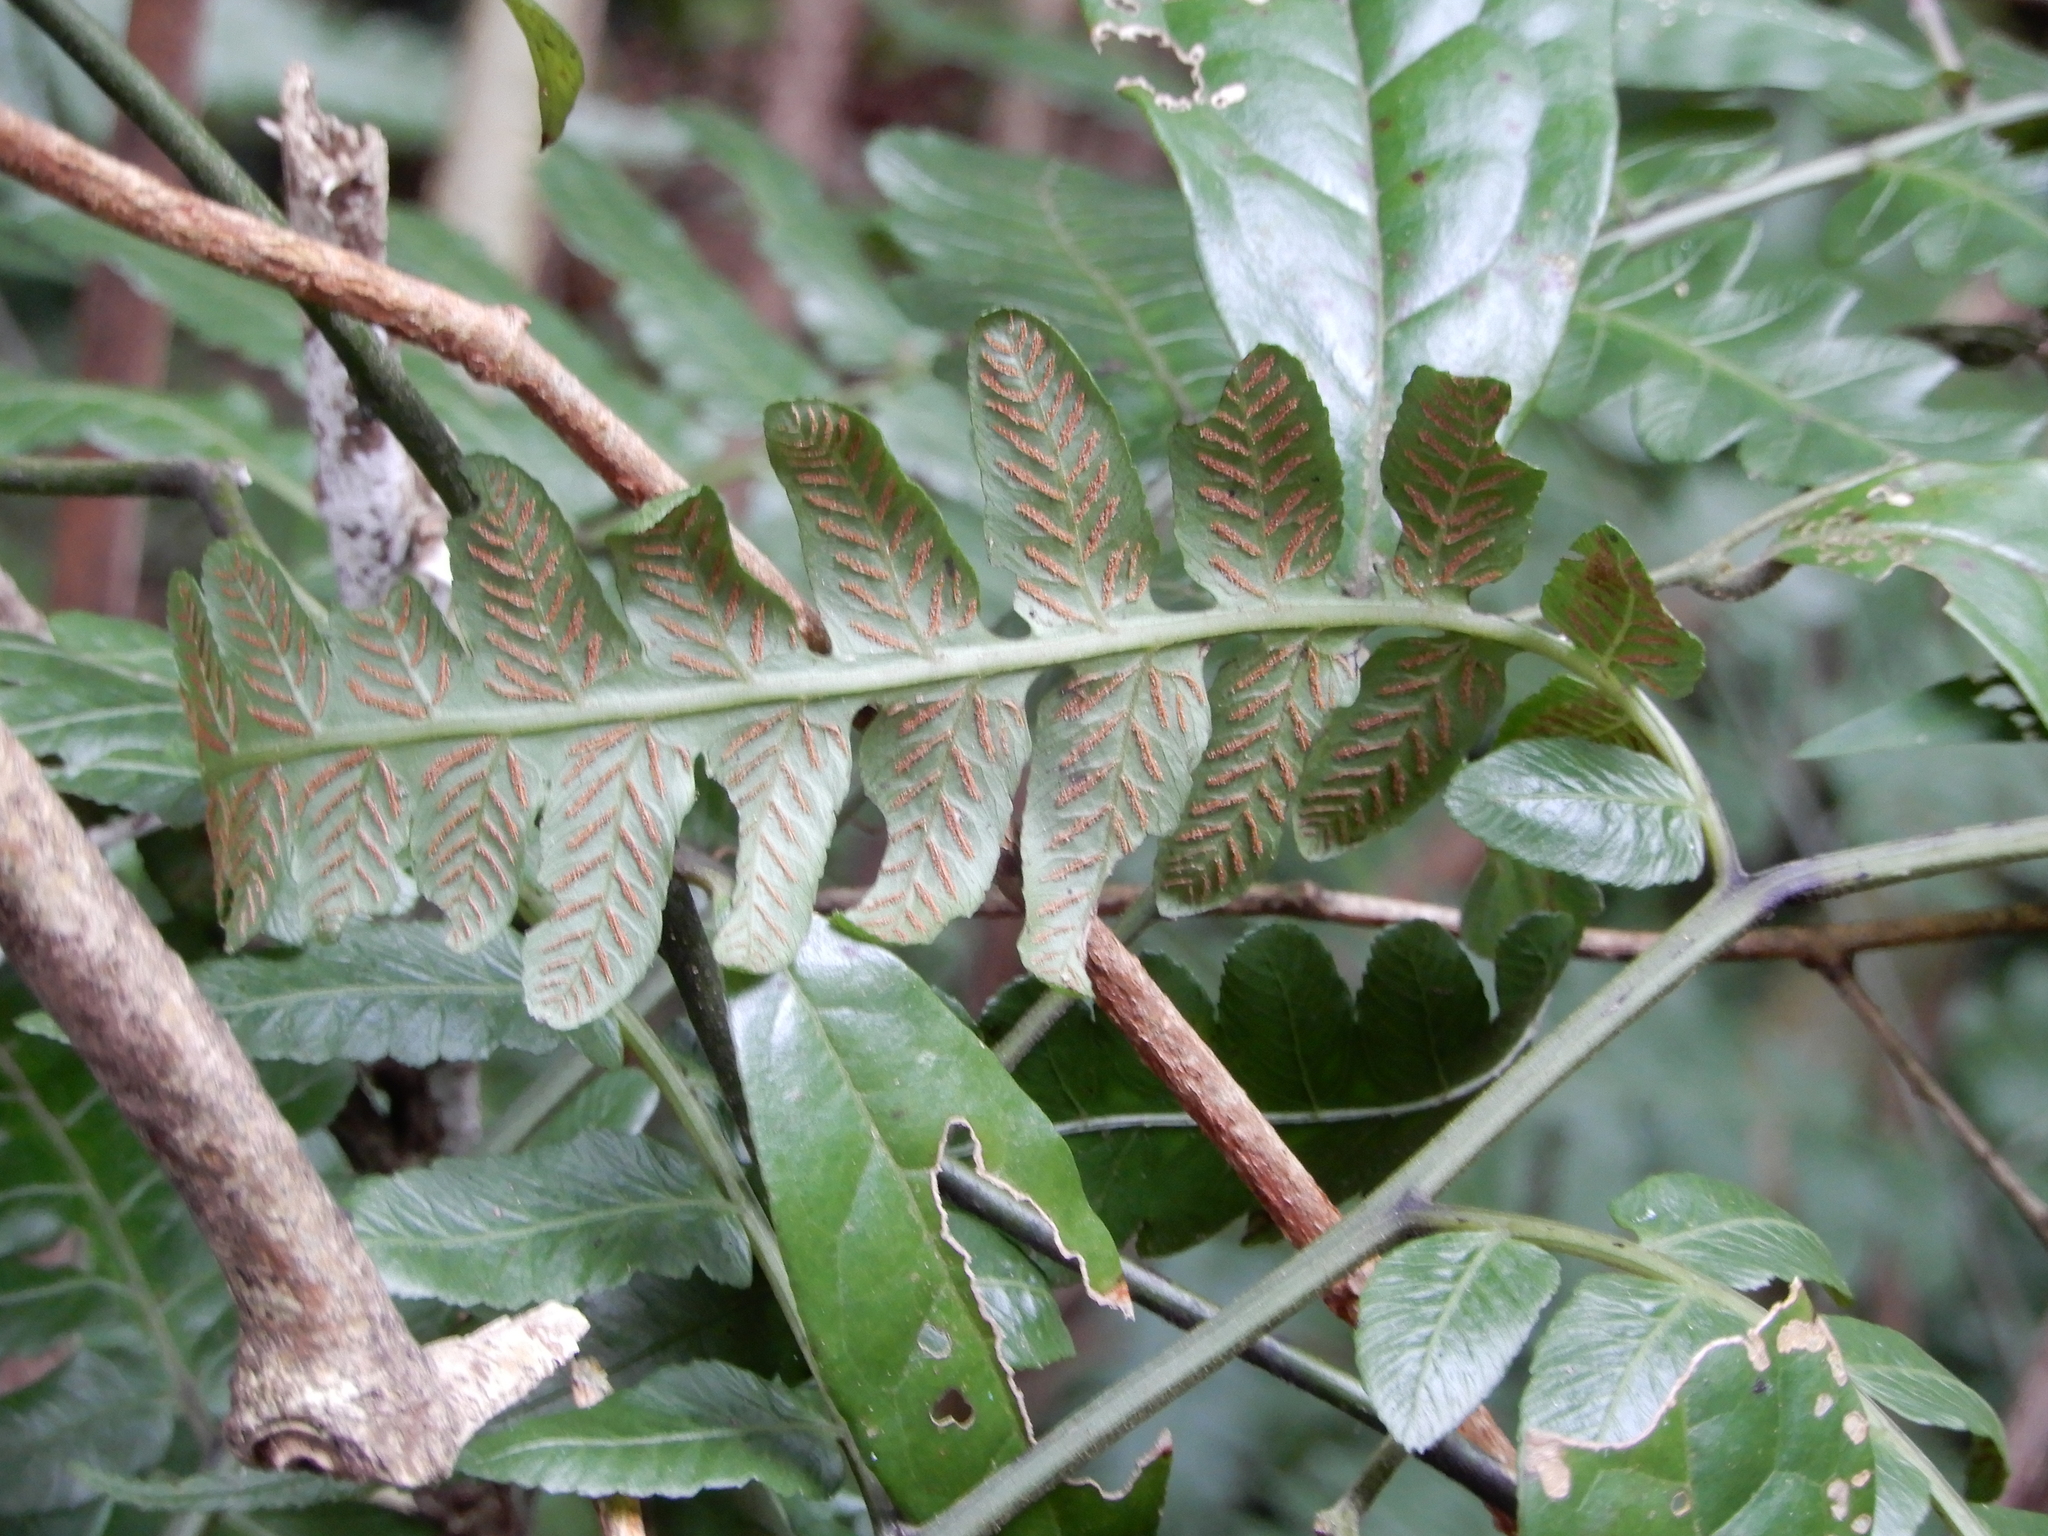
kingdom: Plantae
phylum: Tracheophyta
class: Polypodiopsida
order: Polypodiales
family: Athyriaceae
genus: Diplazium
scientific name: Diplazium dilatatum
